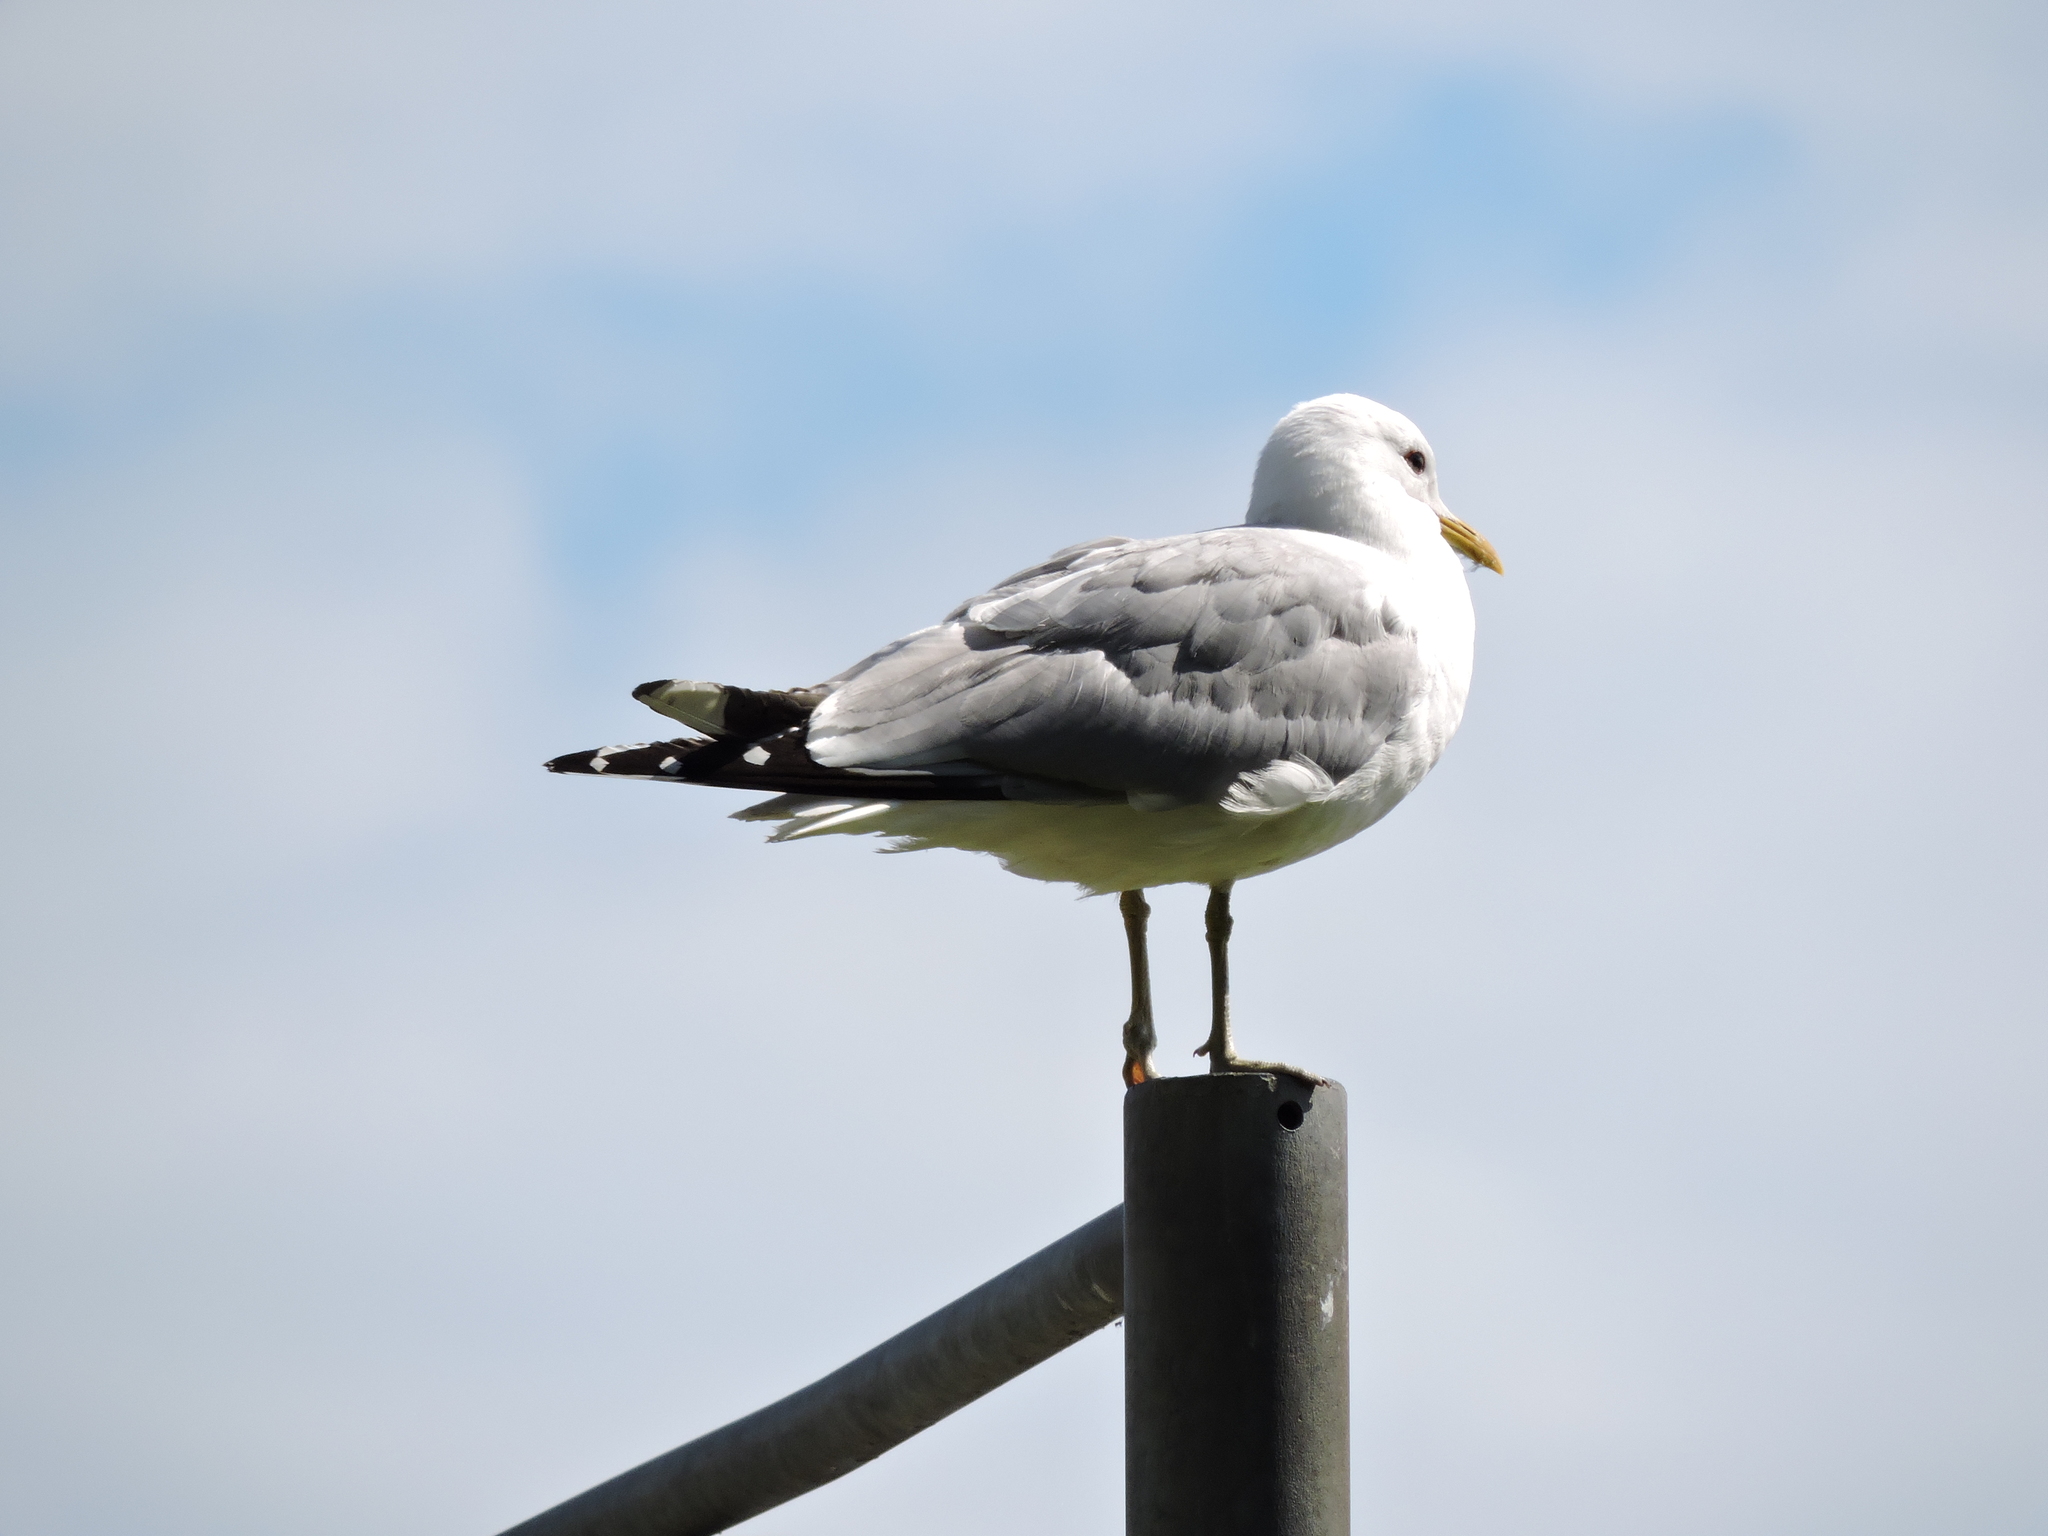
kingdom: Animalia
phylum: Chordata
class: Aves
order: Charadriiformes
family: Laridae
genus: Larus
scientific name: Larus canus
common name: Mew gull
